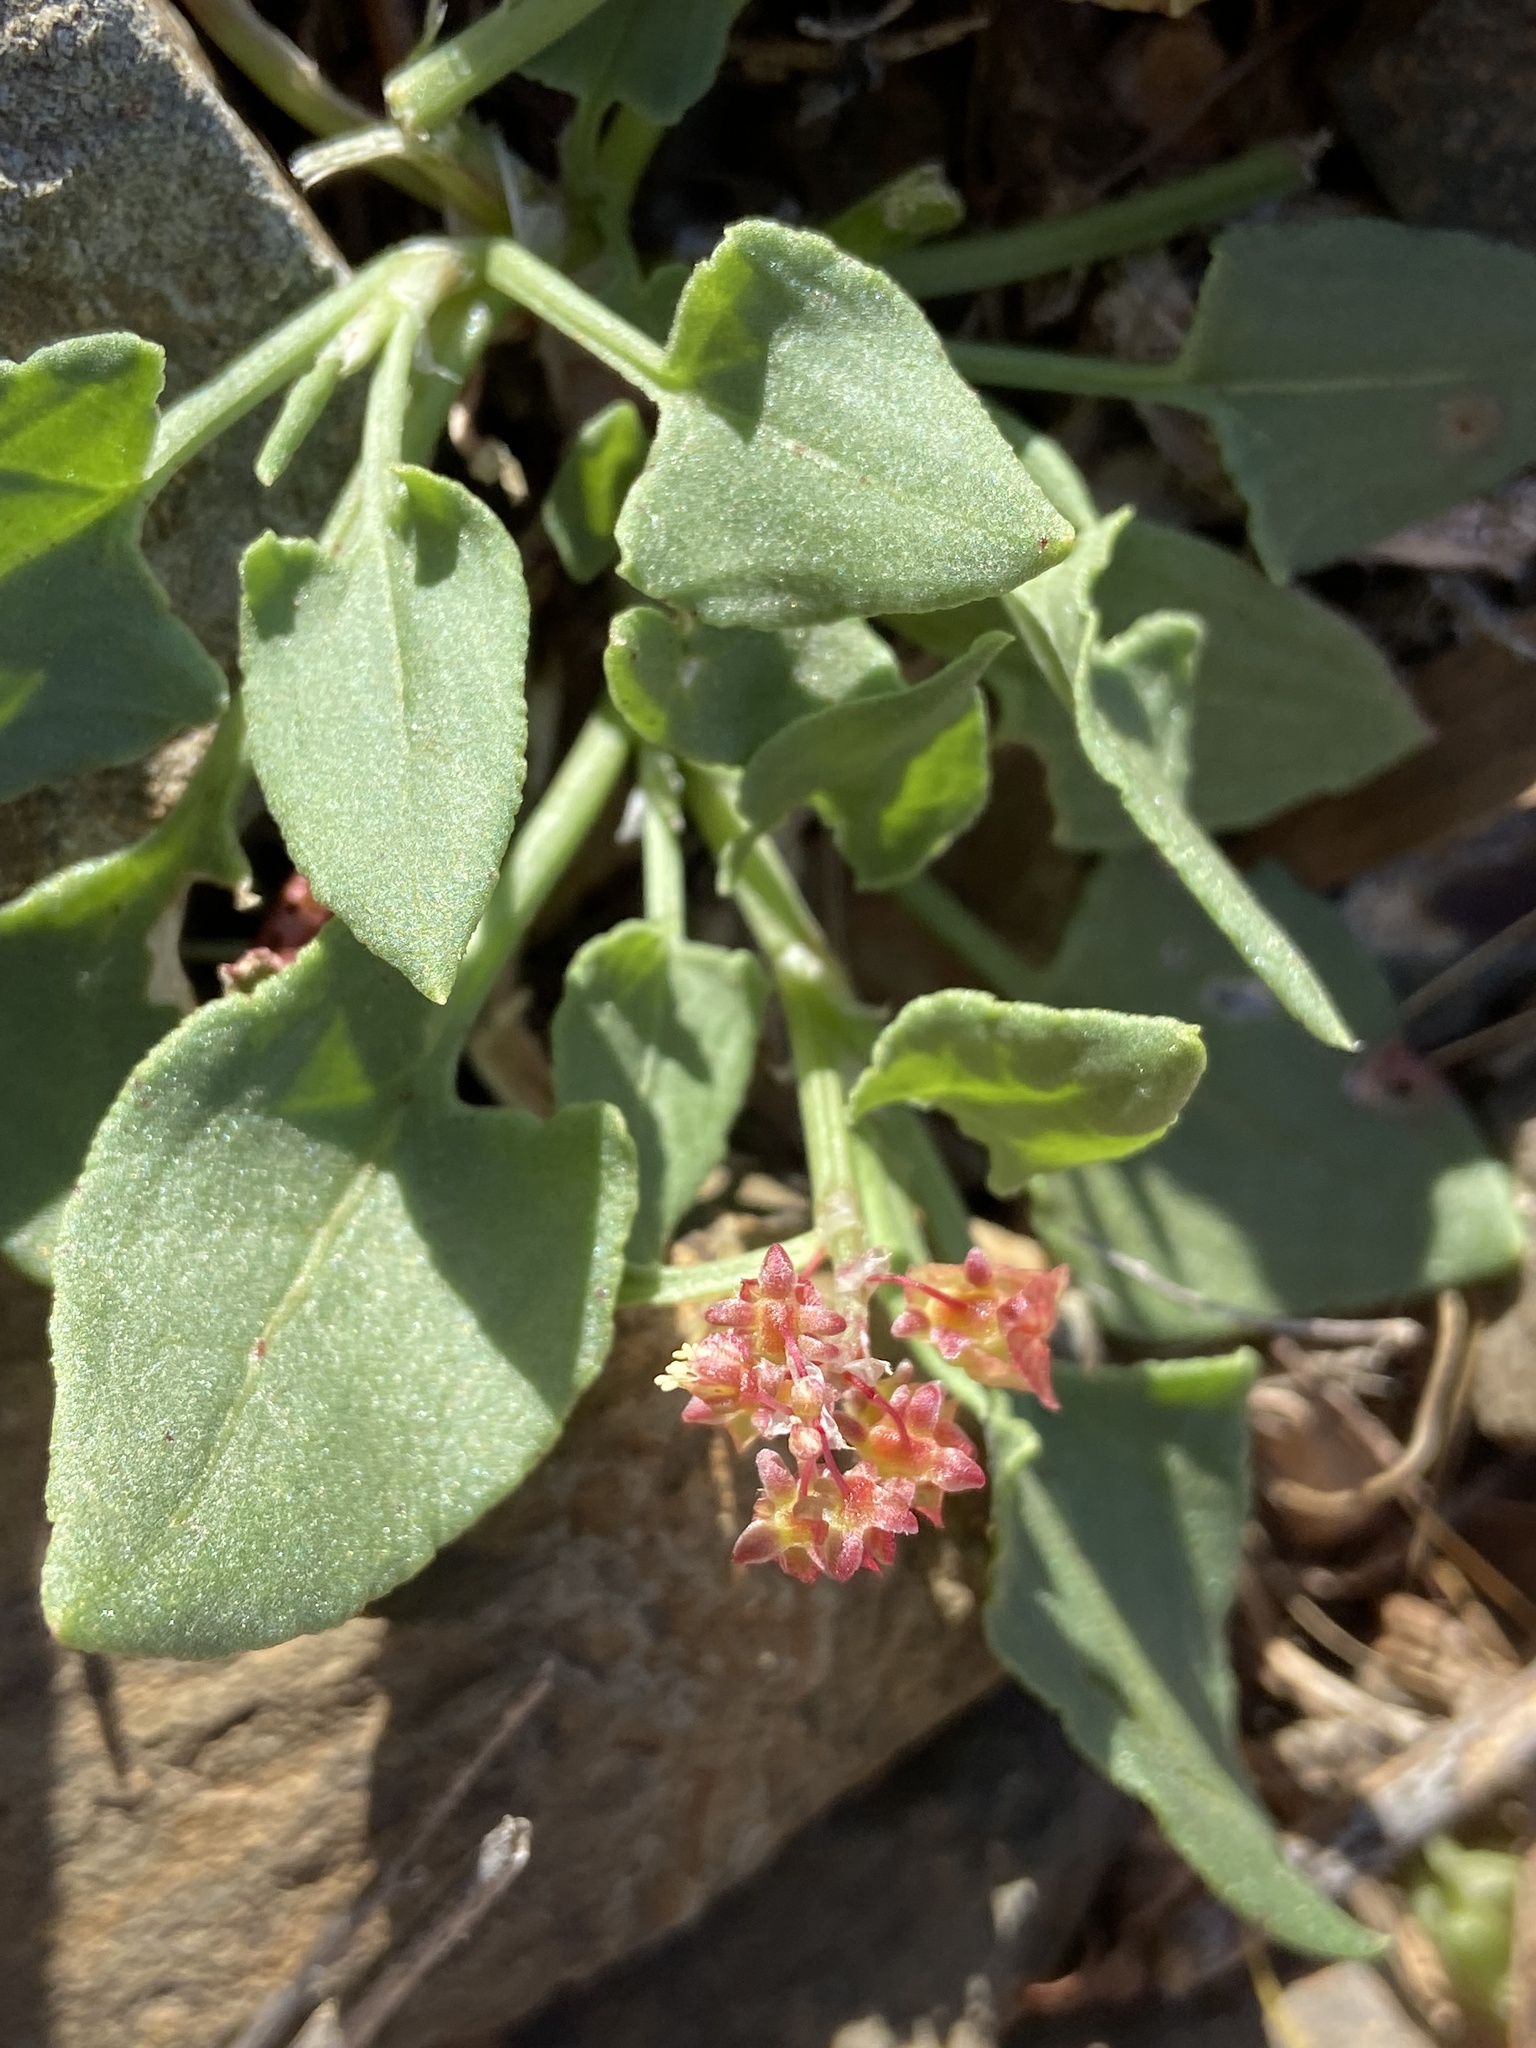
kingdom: Plantae
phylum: Tracheophyta
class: Magnoliopsida
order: Caryophyllales
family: Polygonaceae
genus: Rumex
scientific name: Rumex spinosus
